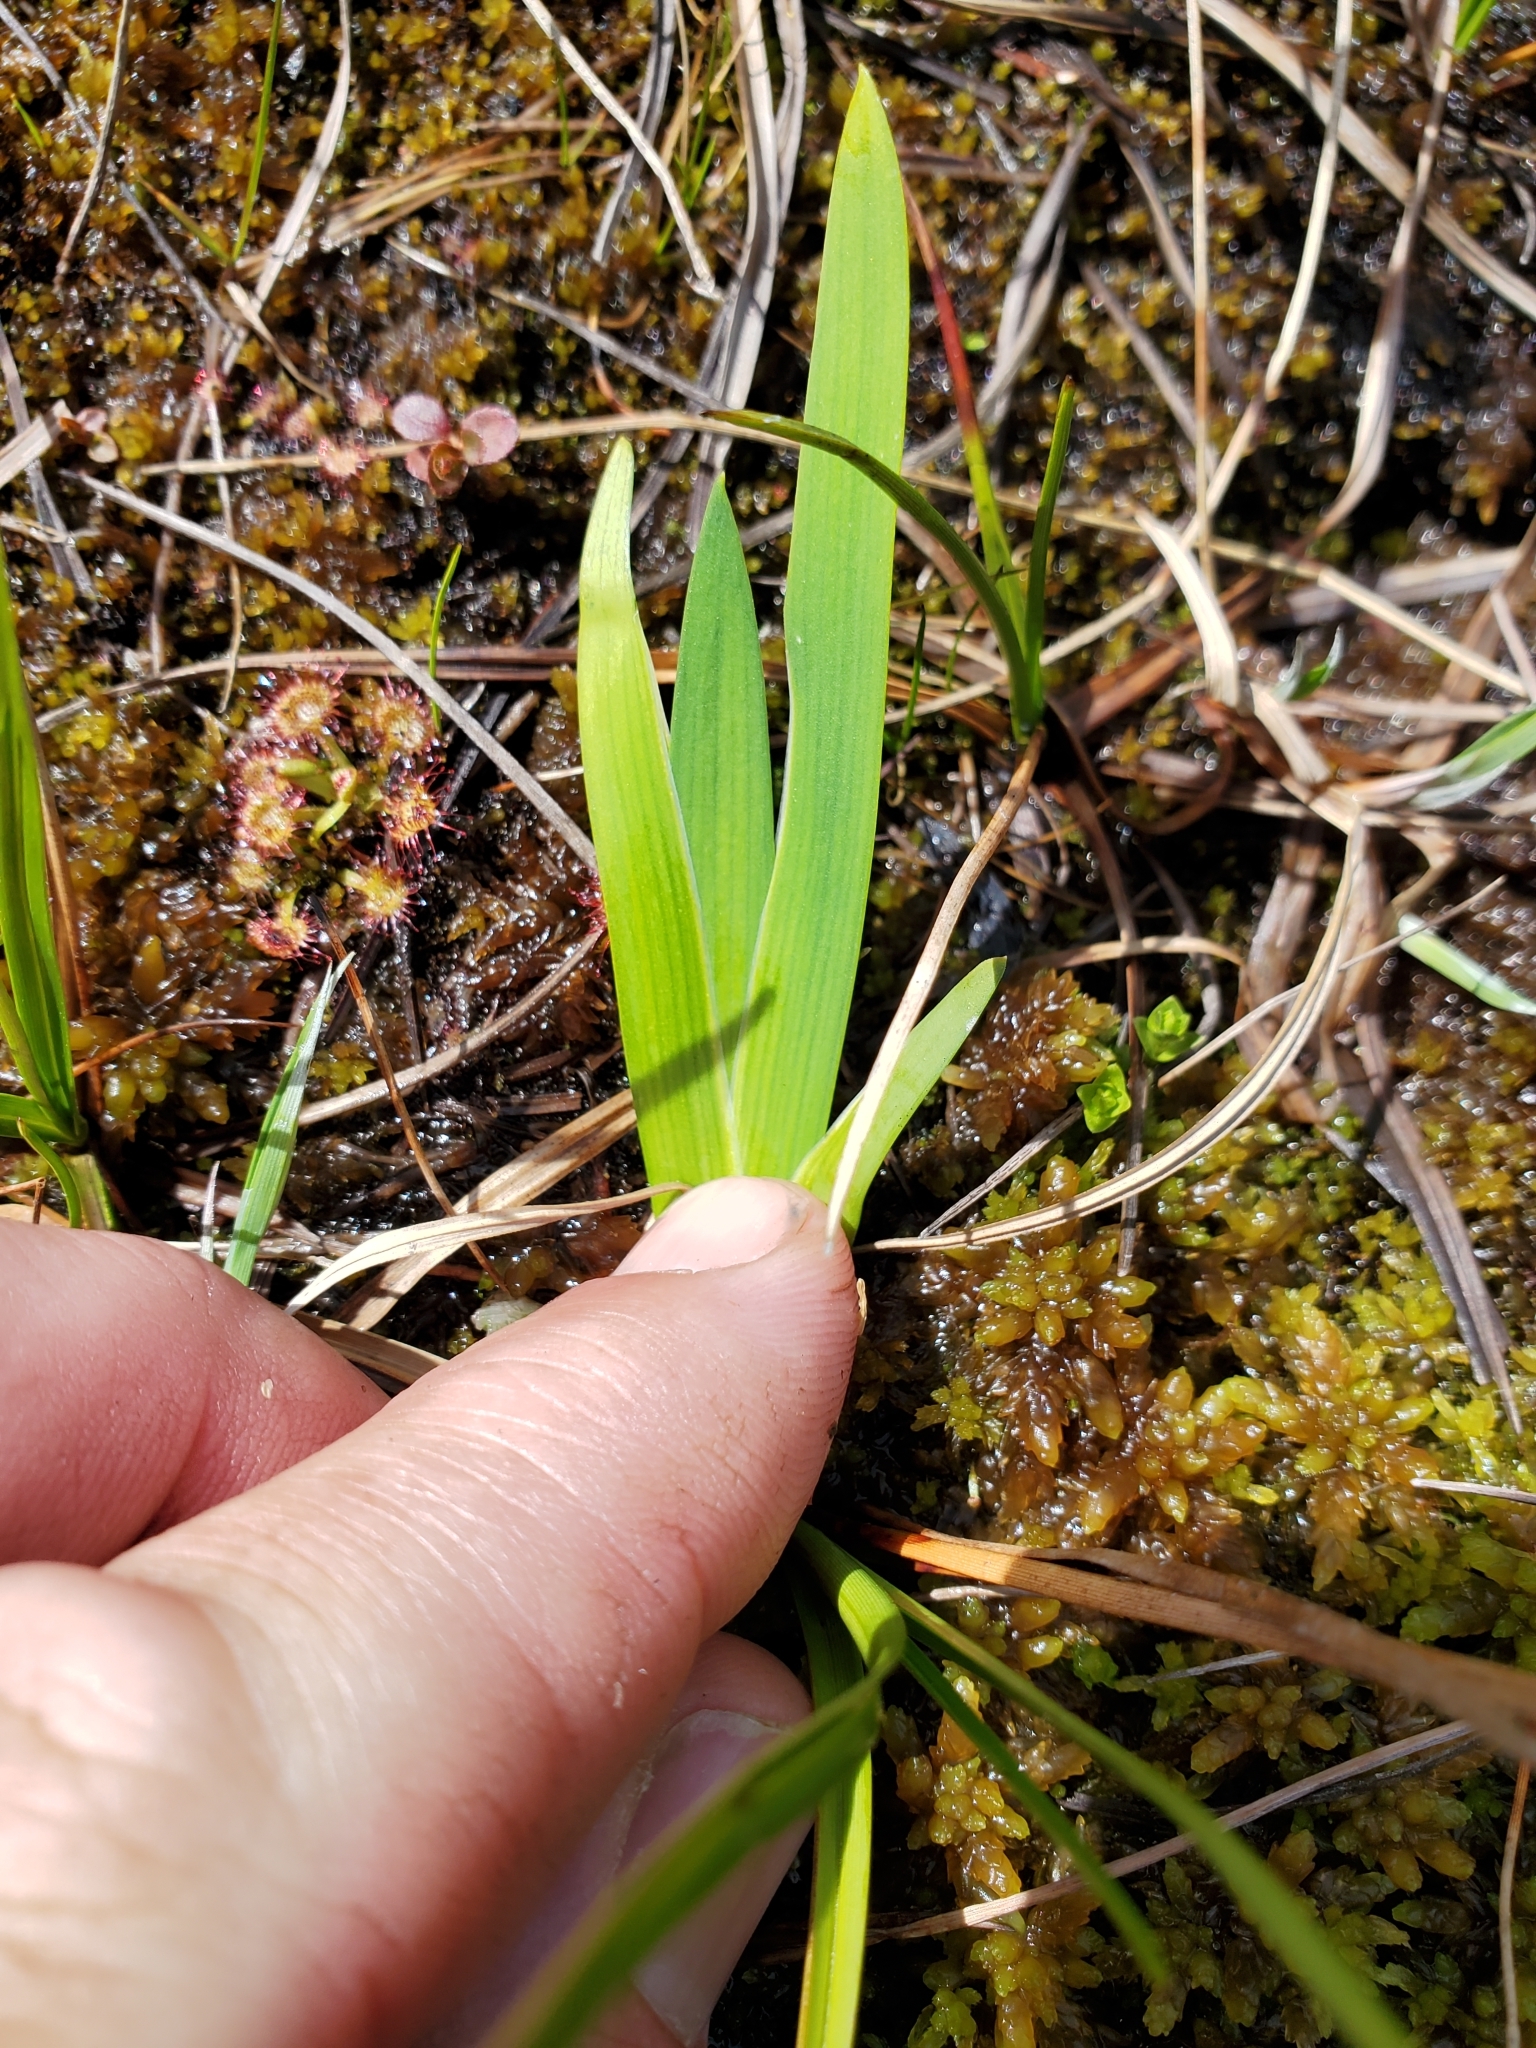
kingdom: Plantae
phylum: Tracheophyta
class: Liliopsida
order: Alismatales
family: Tofieldiaceae
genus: Triantha
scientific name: Triantha occidentalis
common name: Western false asphodel
